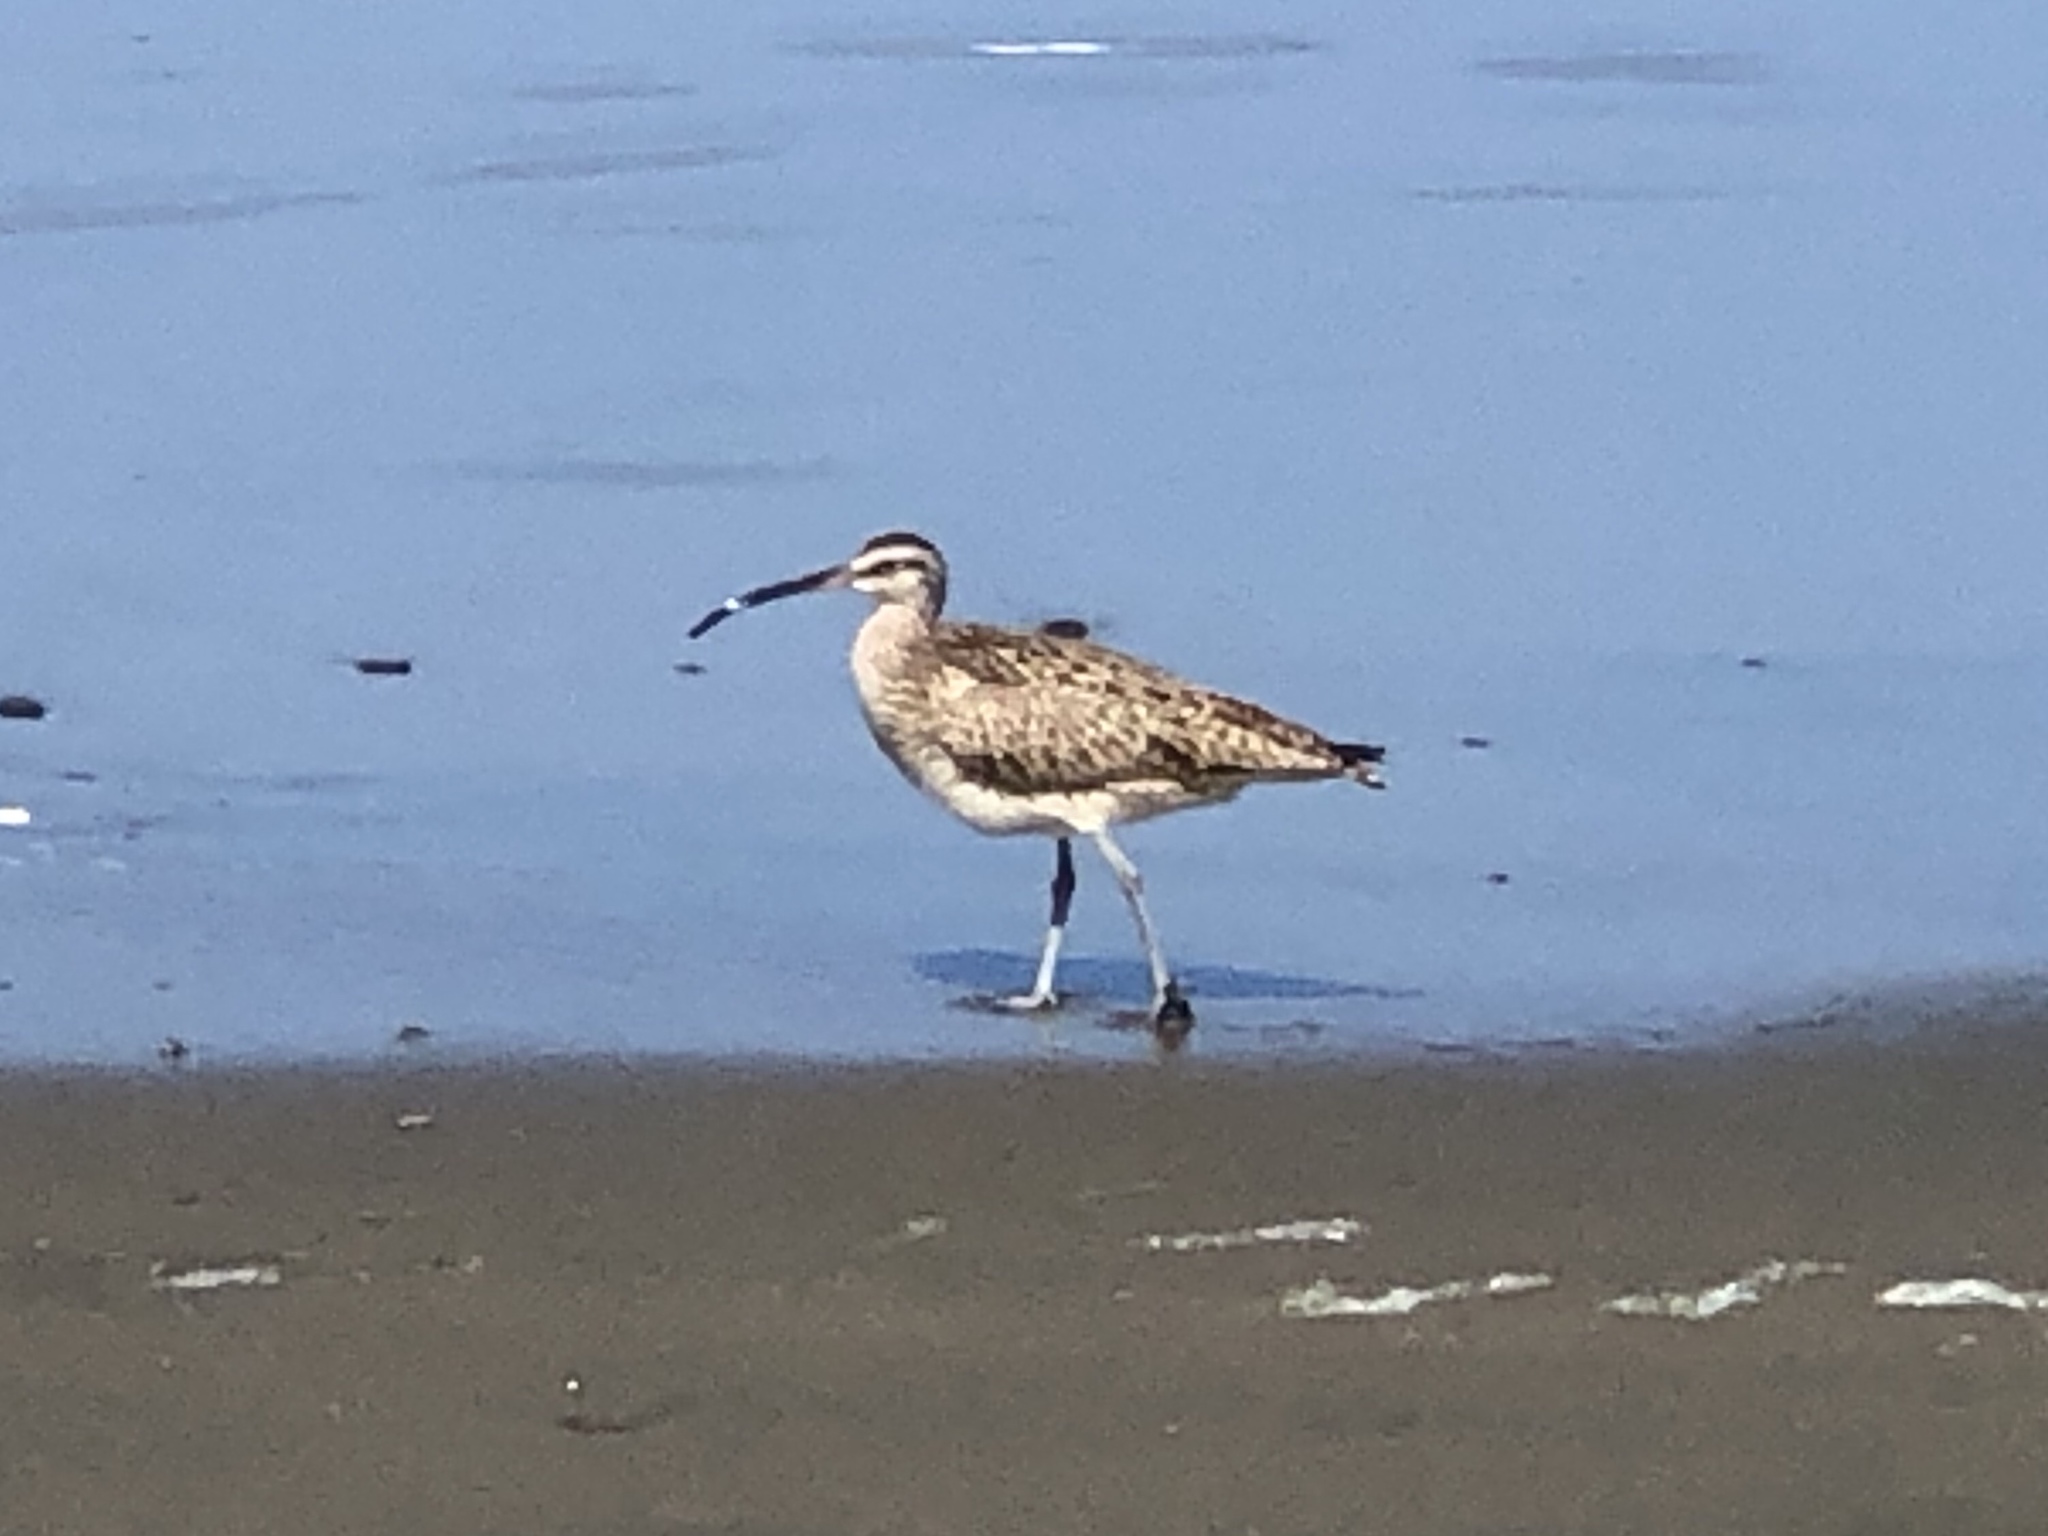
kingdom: Animalia
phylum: Chordata
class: Aves
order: Charadriiformes
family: Scolopacidae
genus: Numenius
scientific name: Numenius phaeopus
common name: Whimbrel
